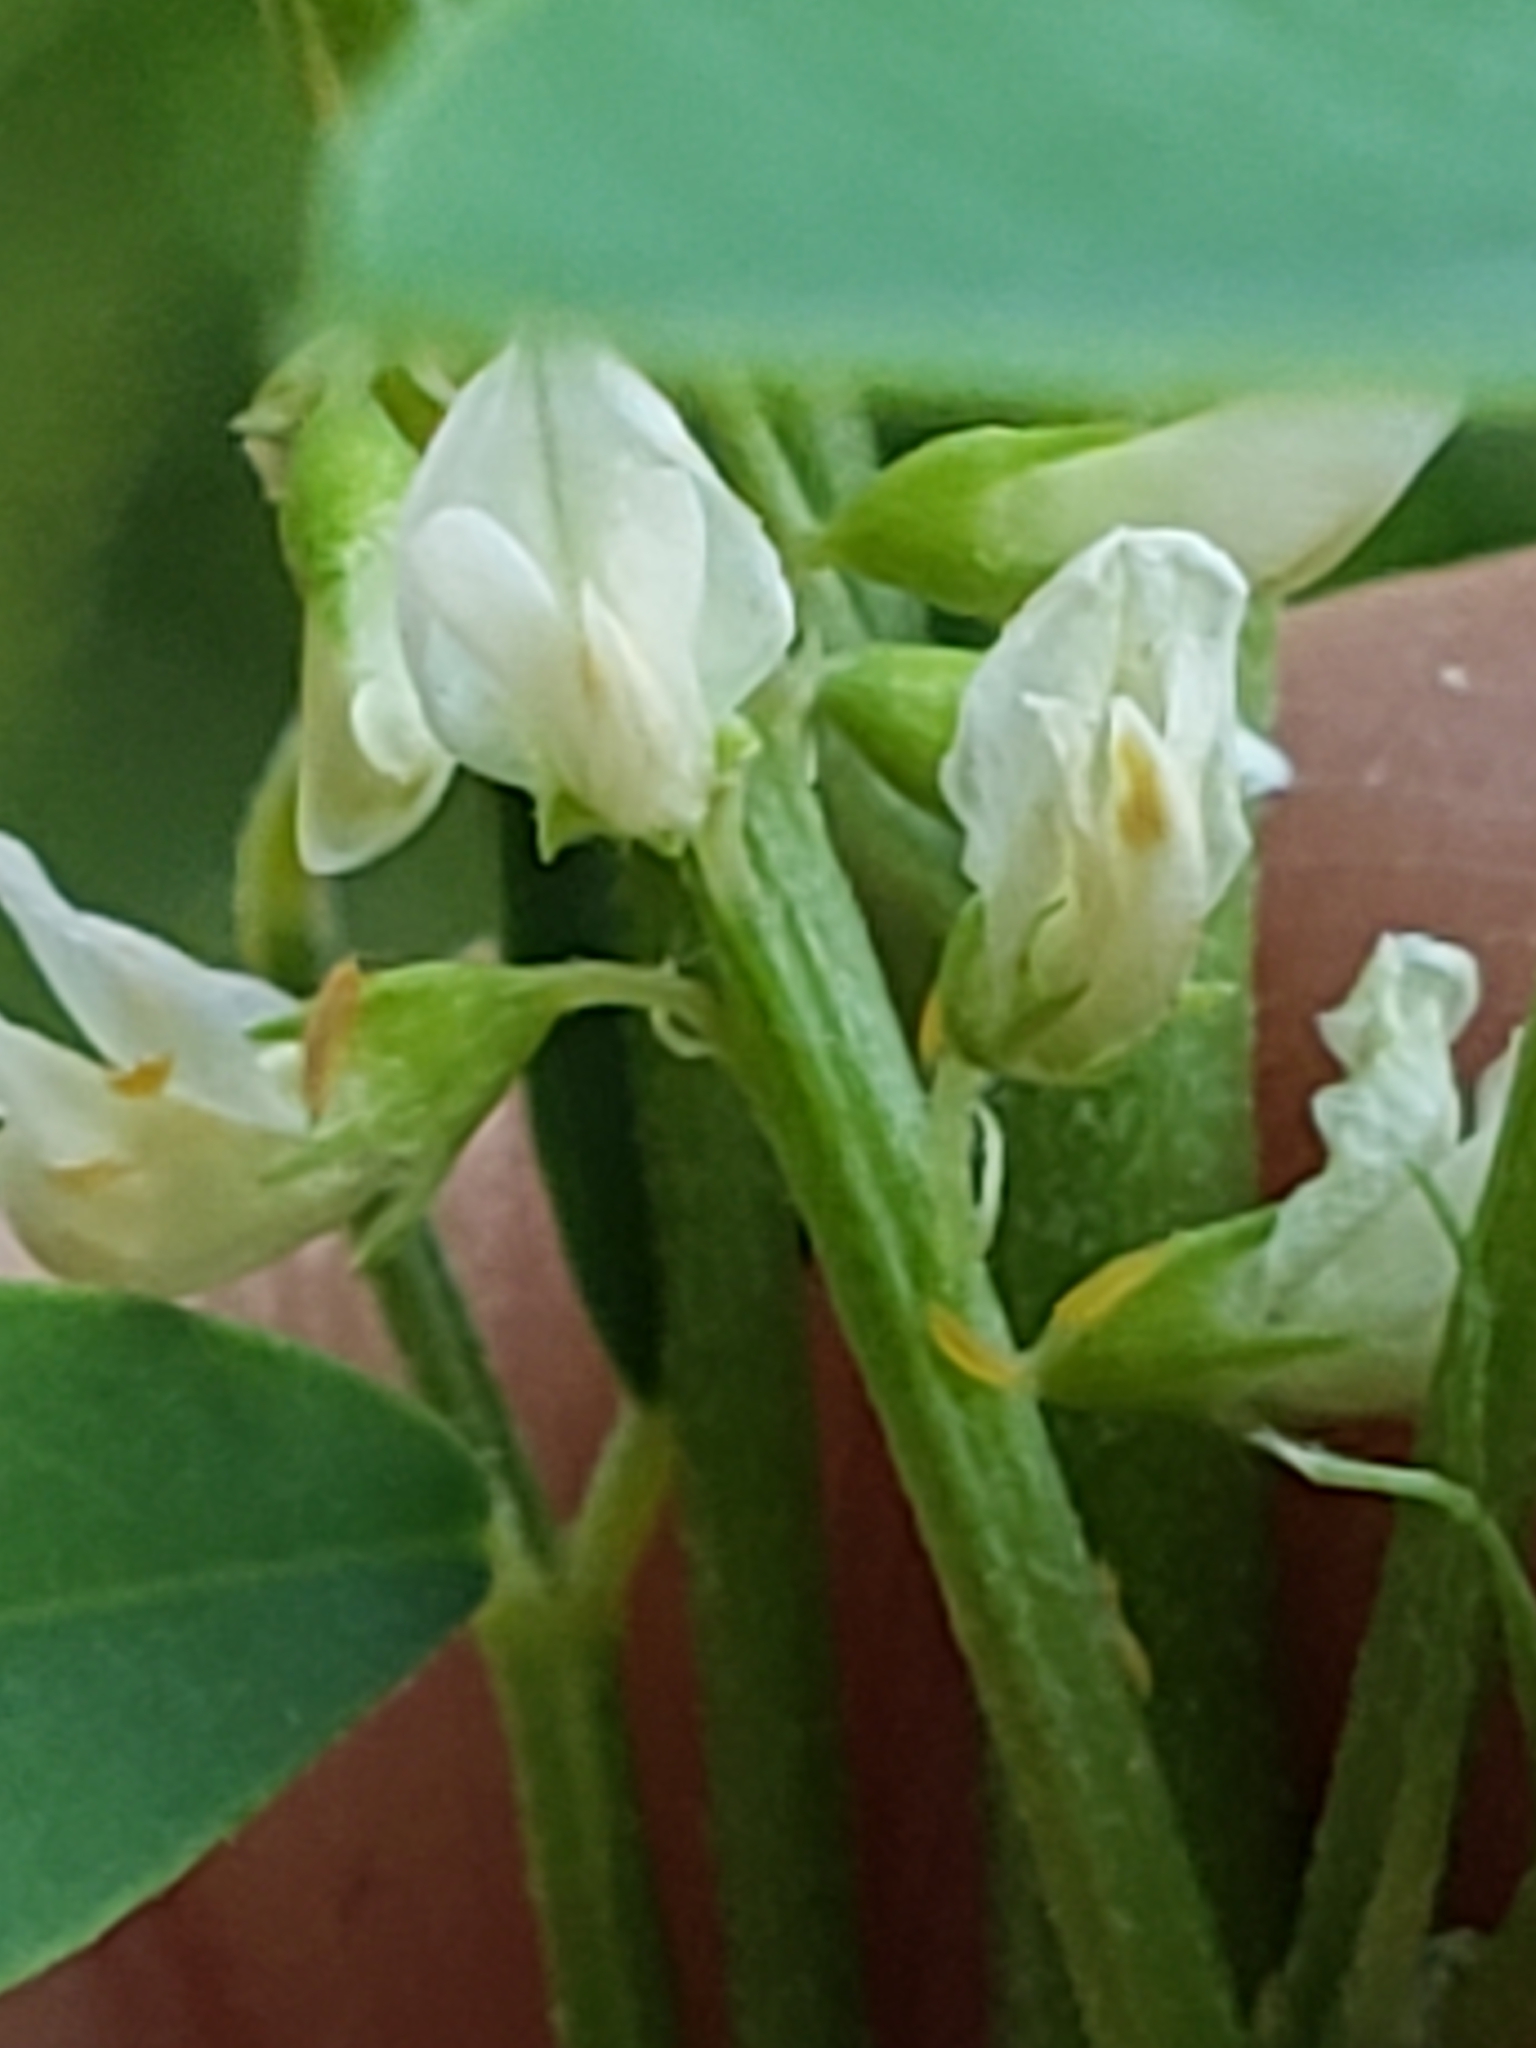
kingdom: Plantae
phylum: Tracheophyta
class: Magnoliopsida
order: Fabales
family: Fabaceae
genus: Melilotus
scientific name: Melilotus albus
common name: White melilot
